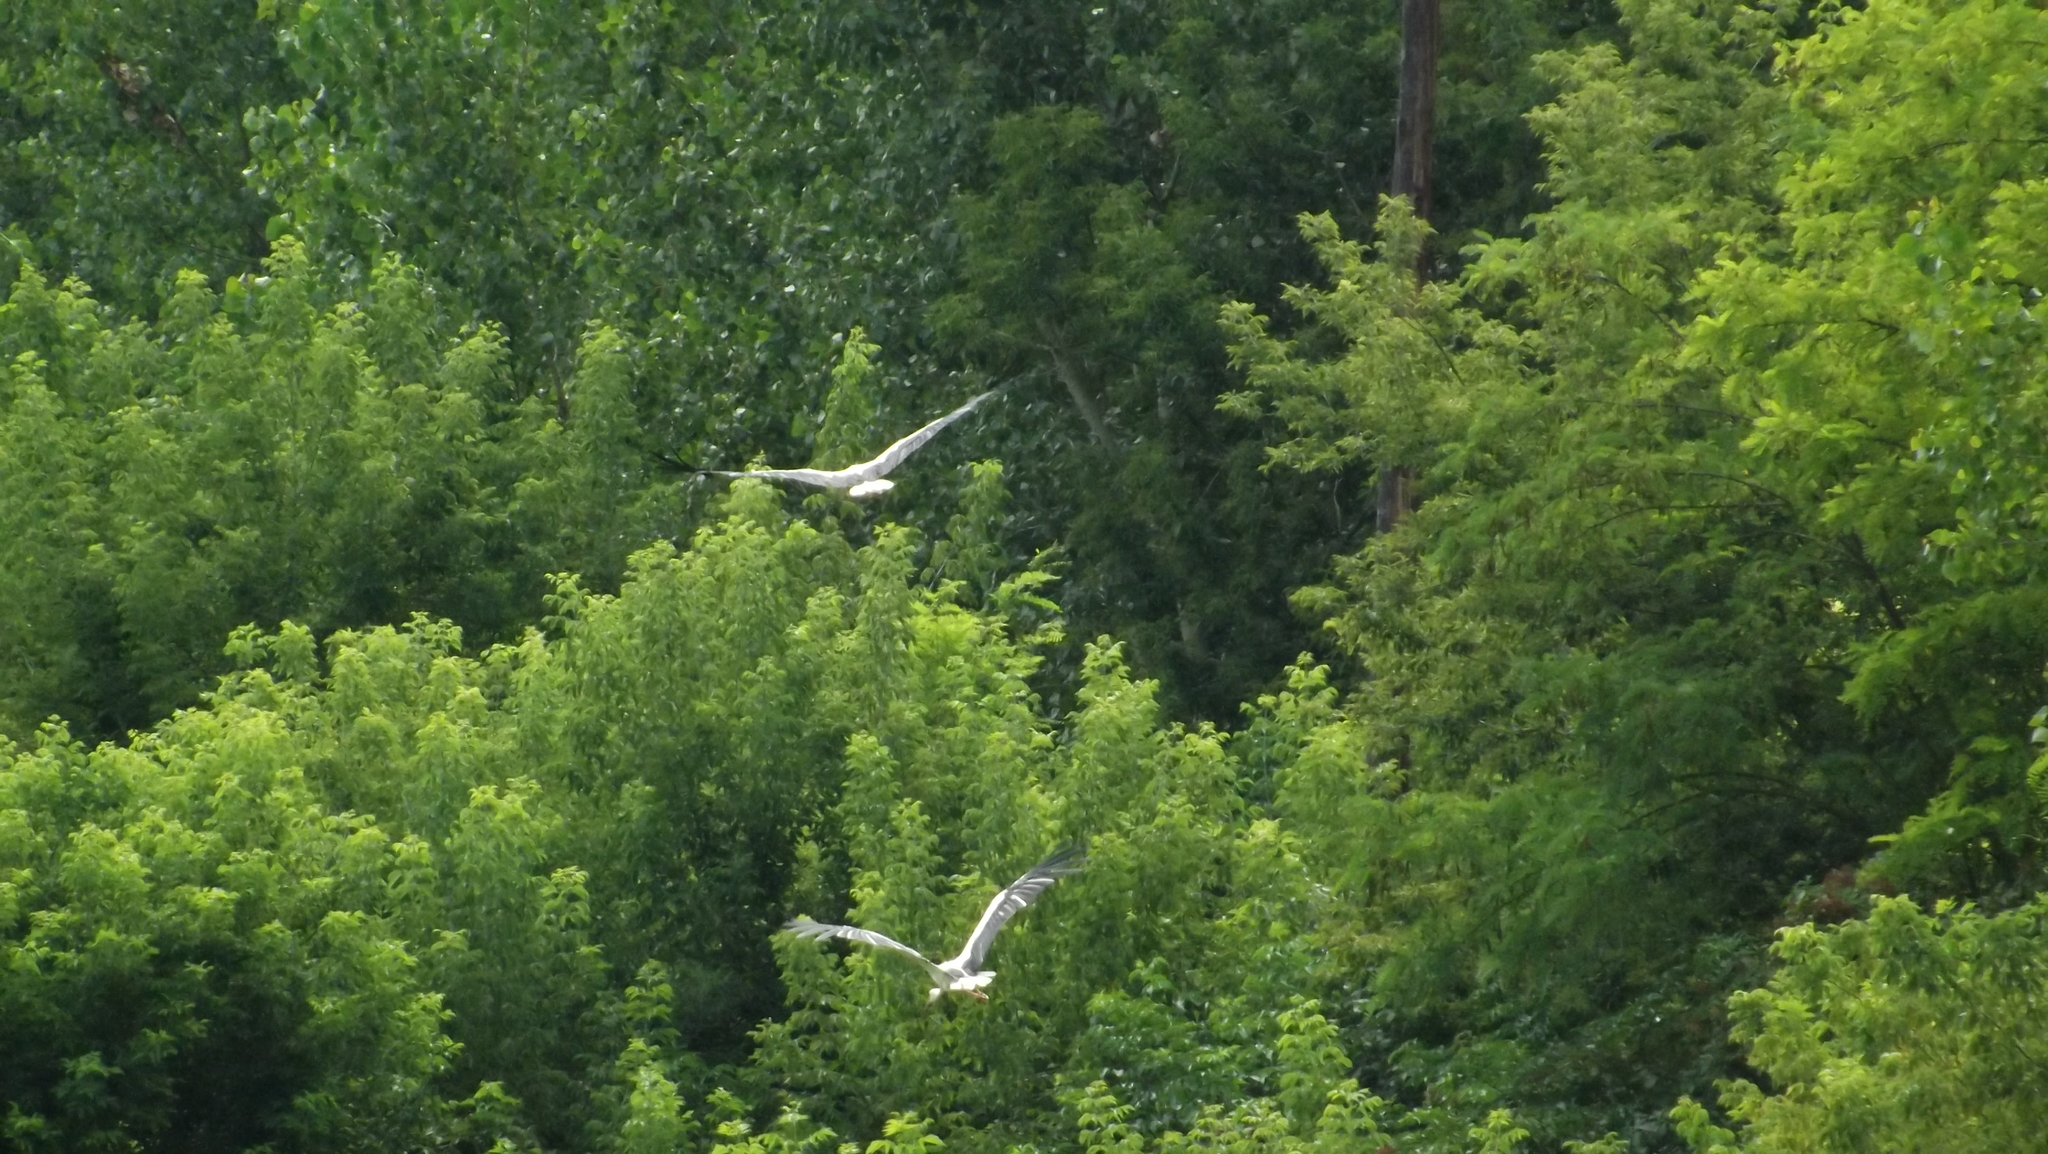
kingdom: Animalia
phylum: Chordata
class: Aves
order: Ciconiiformes
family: Ciconiidae
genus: Ciconia
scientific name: Ciconia ciconia
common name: White stork
